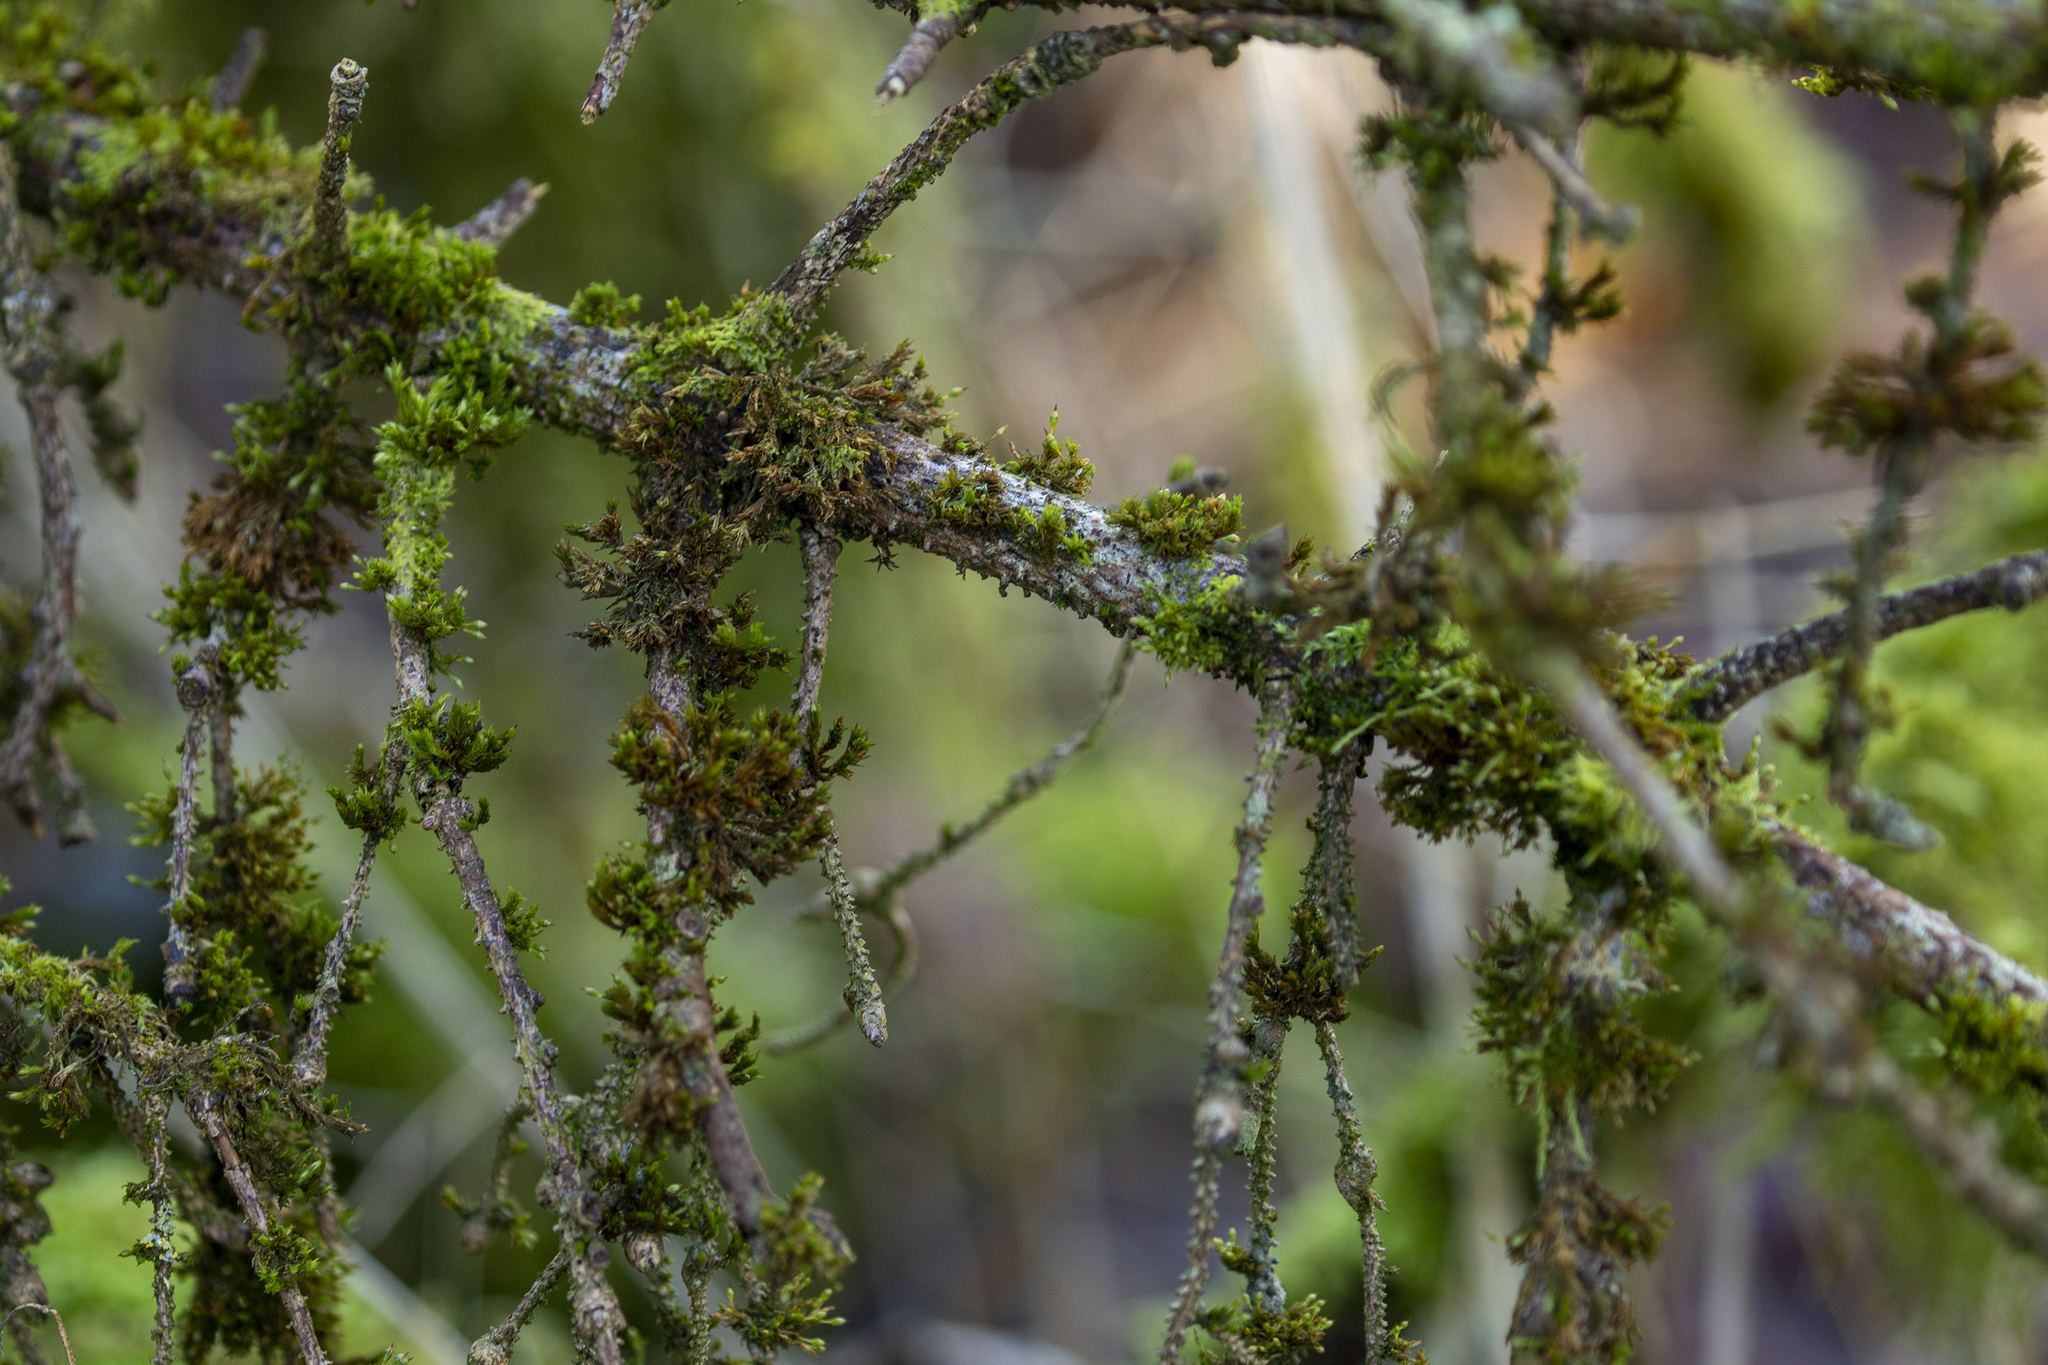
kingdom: Plantae
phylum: Bryophyta
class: Bryopsida
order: Orthotrichales
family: Orthotrichaceae
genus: Orthotrichum
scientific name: Orthotrichum pulchellum
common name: Elegant bristle-moss
